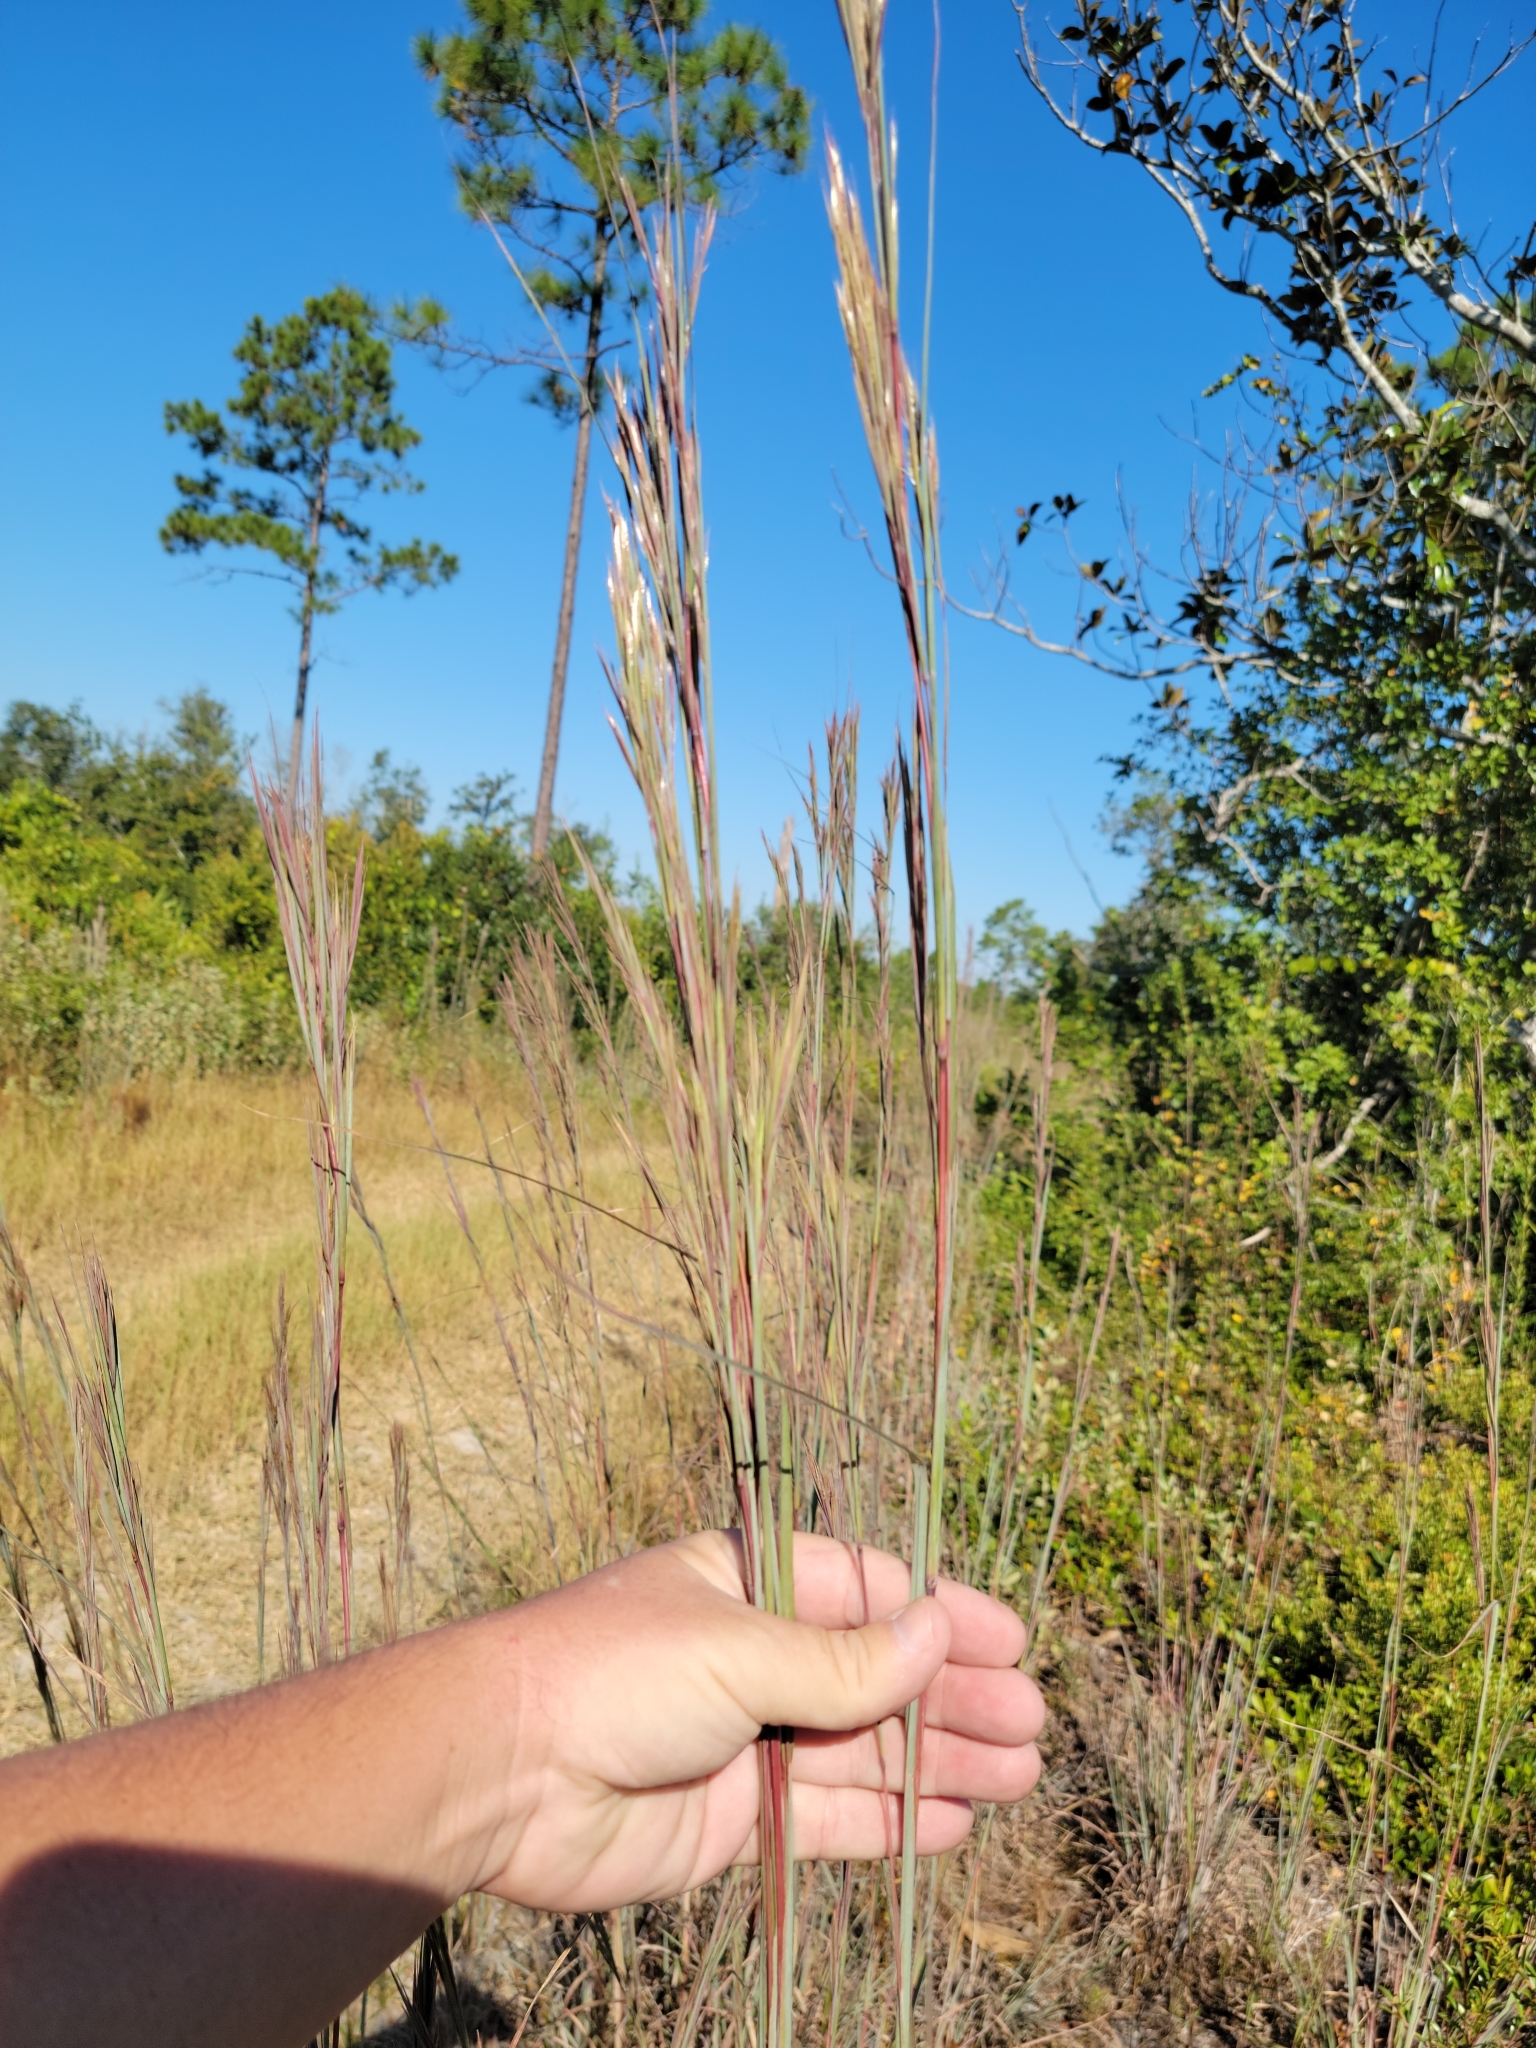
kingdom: Plantae
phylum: Tracheophyta
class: Liliopsida
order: Poales
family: Poaceae
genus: Andropogon
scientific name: Andropogon cretaceus
